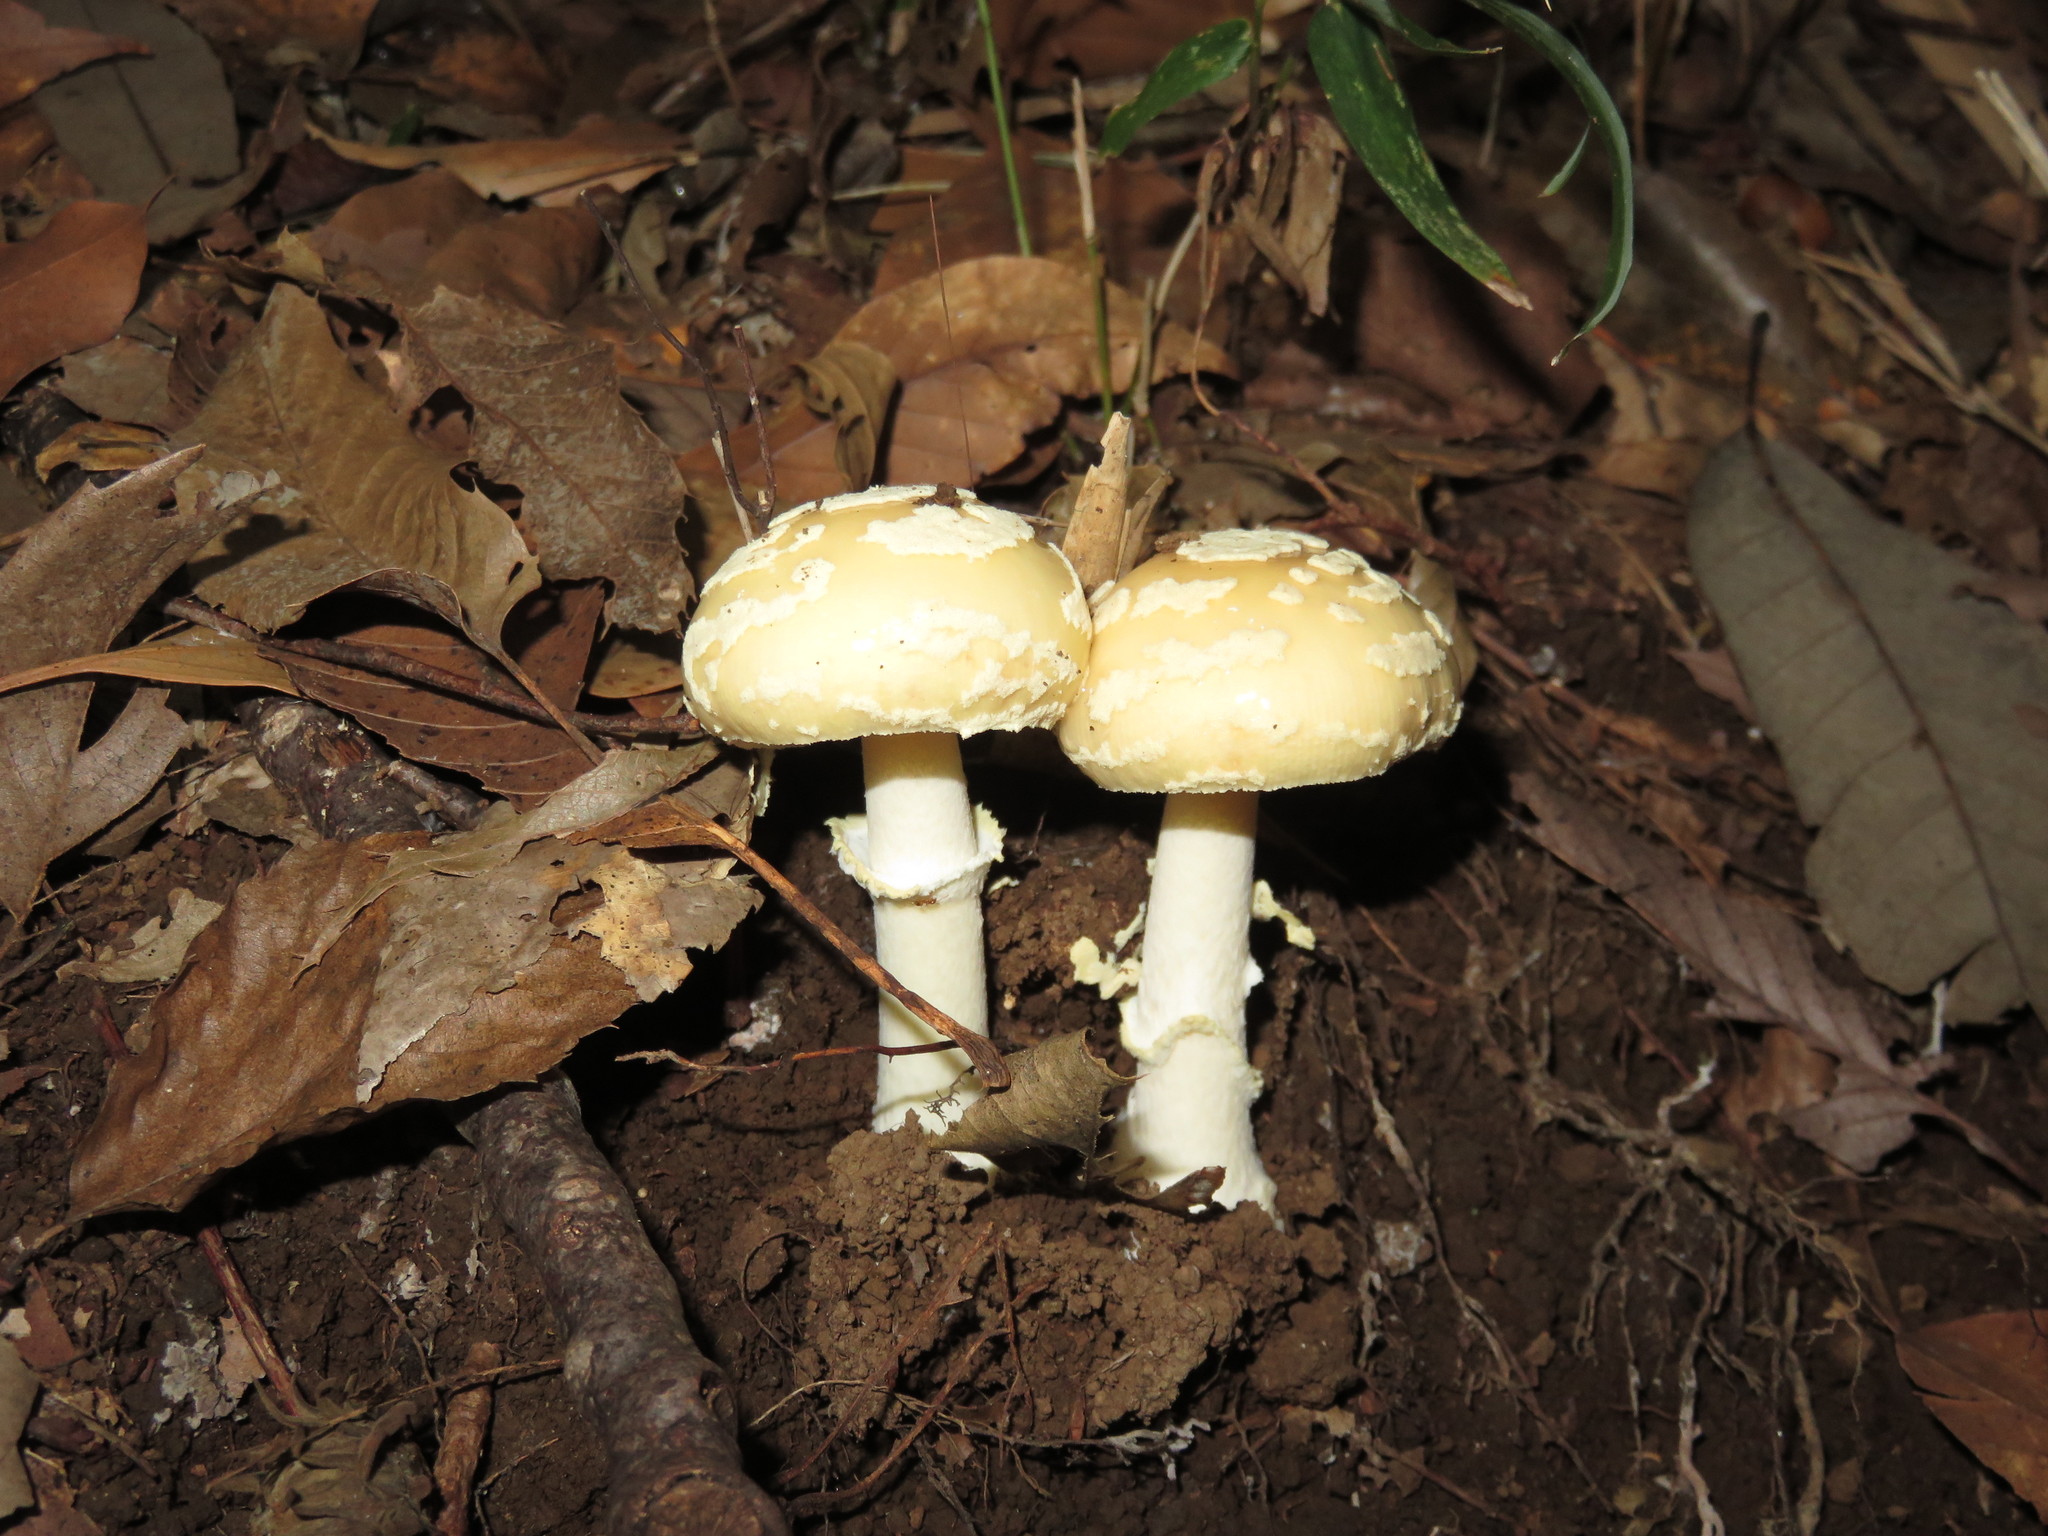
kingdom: Fungi
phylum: Basidiomycota
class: Agaricomycetes
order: Agaricales
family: Amanitaceae
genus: Amanita
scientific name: Amanita subparvipantherina
